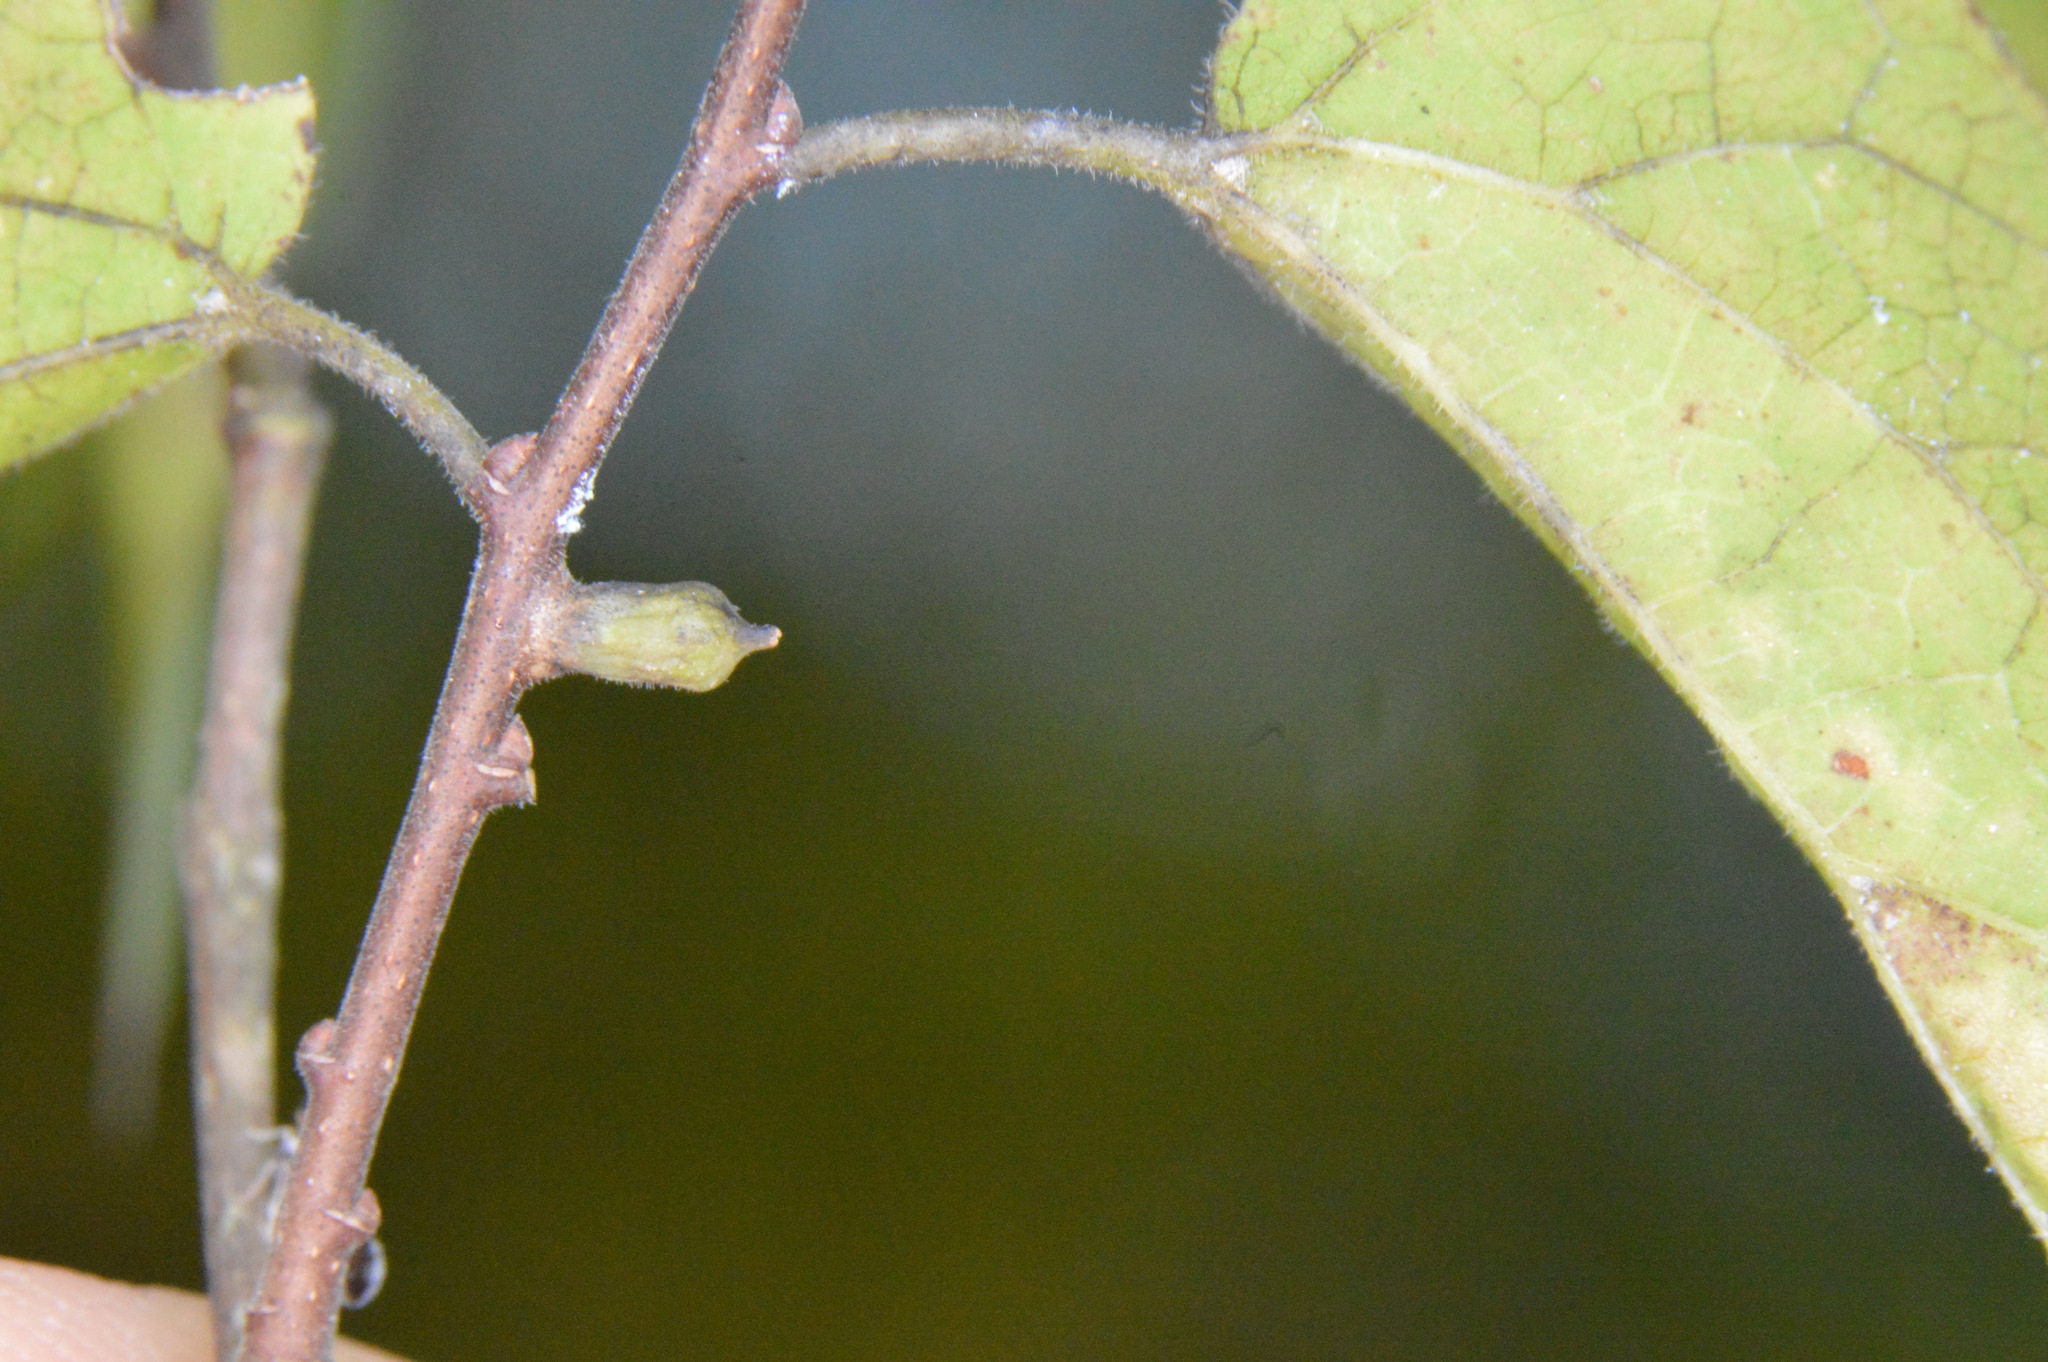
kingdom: Animalia
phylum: Arthropoda
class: Insecta
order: Diptera
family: Cecidomyiidae
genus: Celticecis
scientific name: Celticecis ramicola
